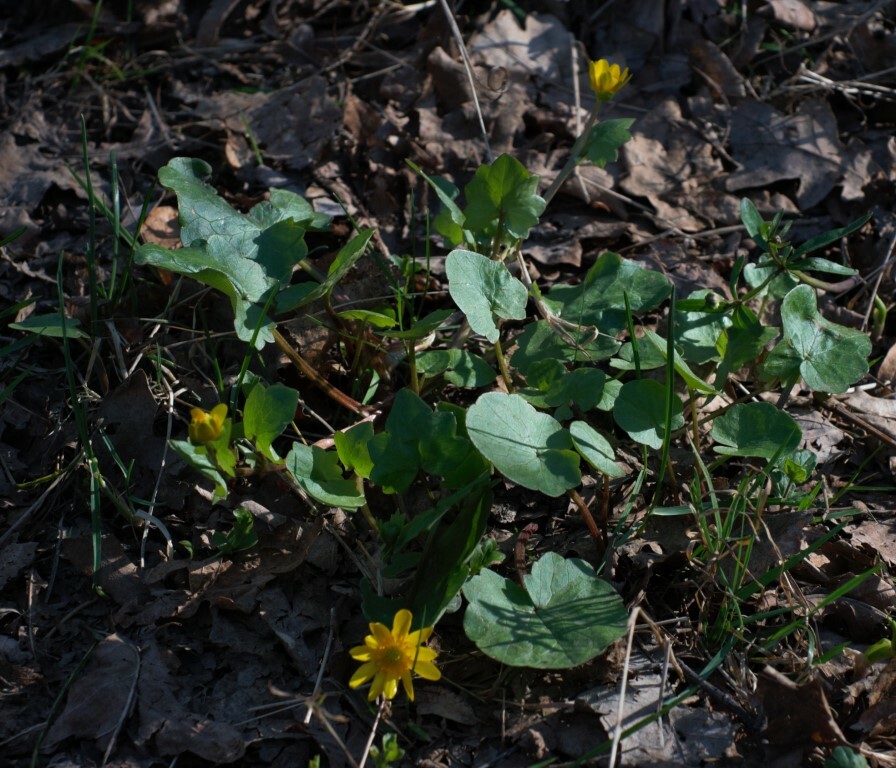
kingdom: Plantae
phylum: Tracheophyta
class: Magnoliopsida
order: Ranunculales
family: Ranunculaceae
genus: Ficaria
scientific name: Ficaria verna
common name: Lesser celandine
